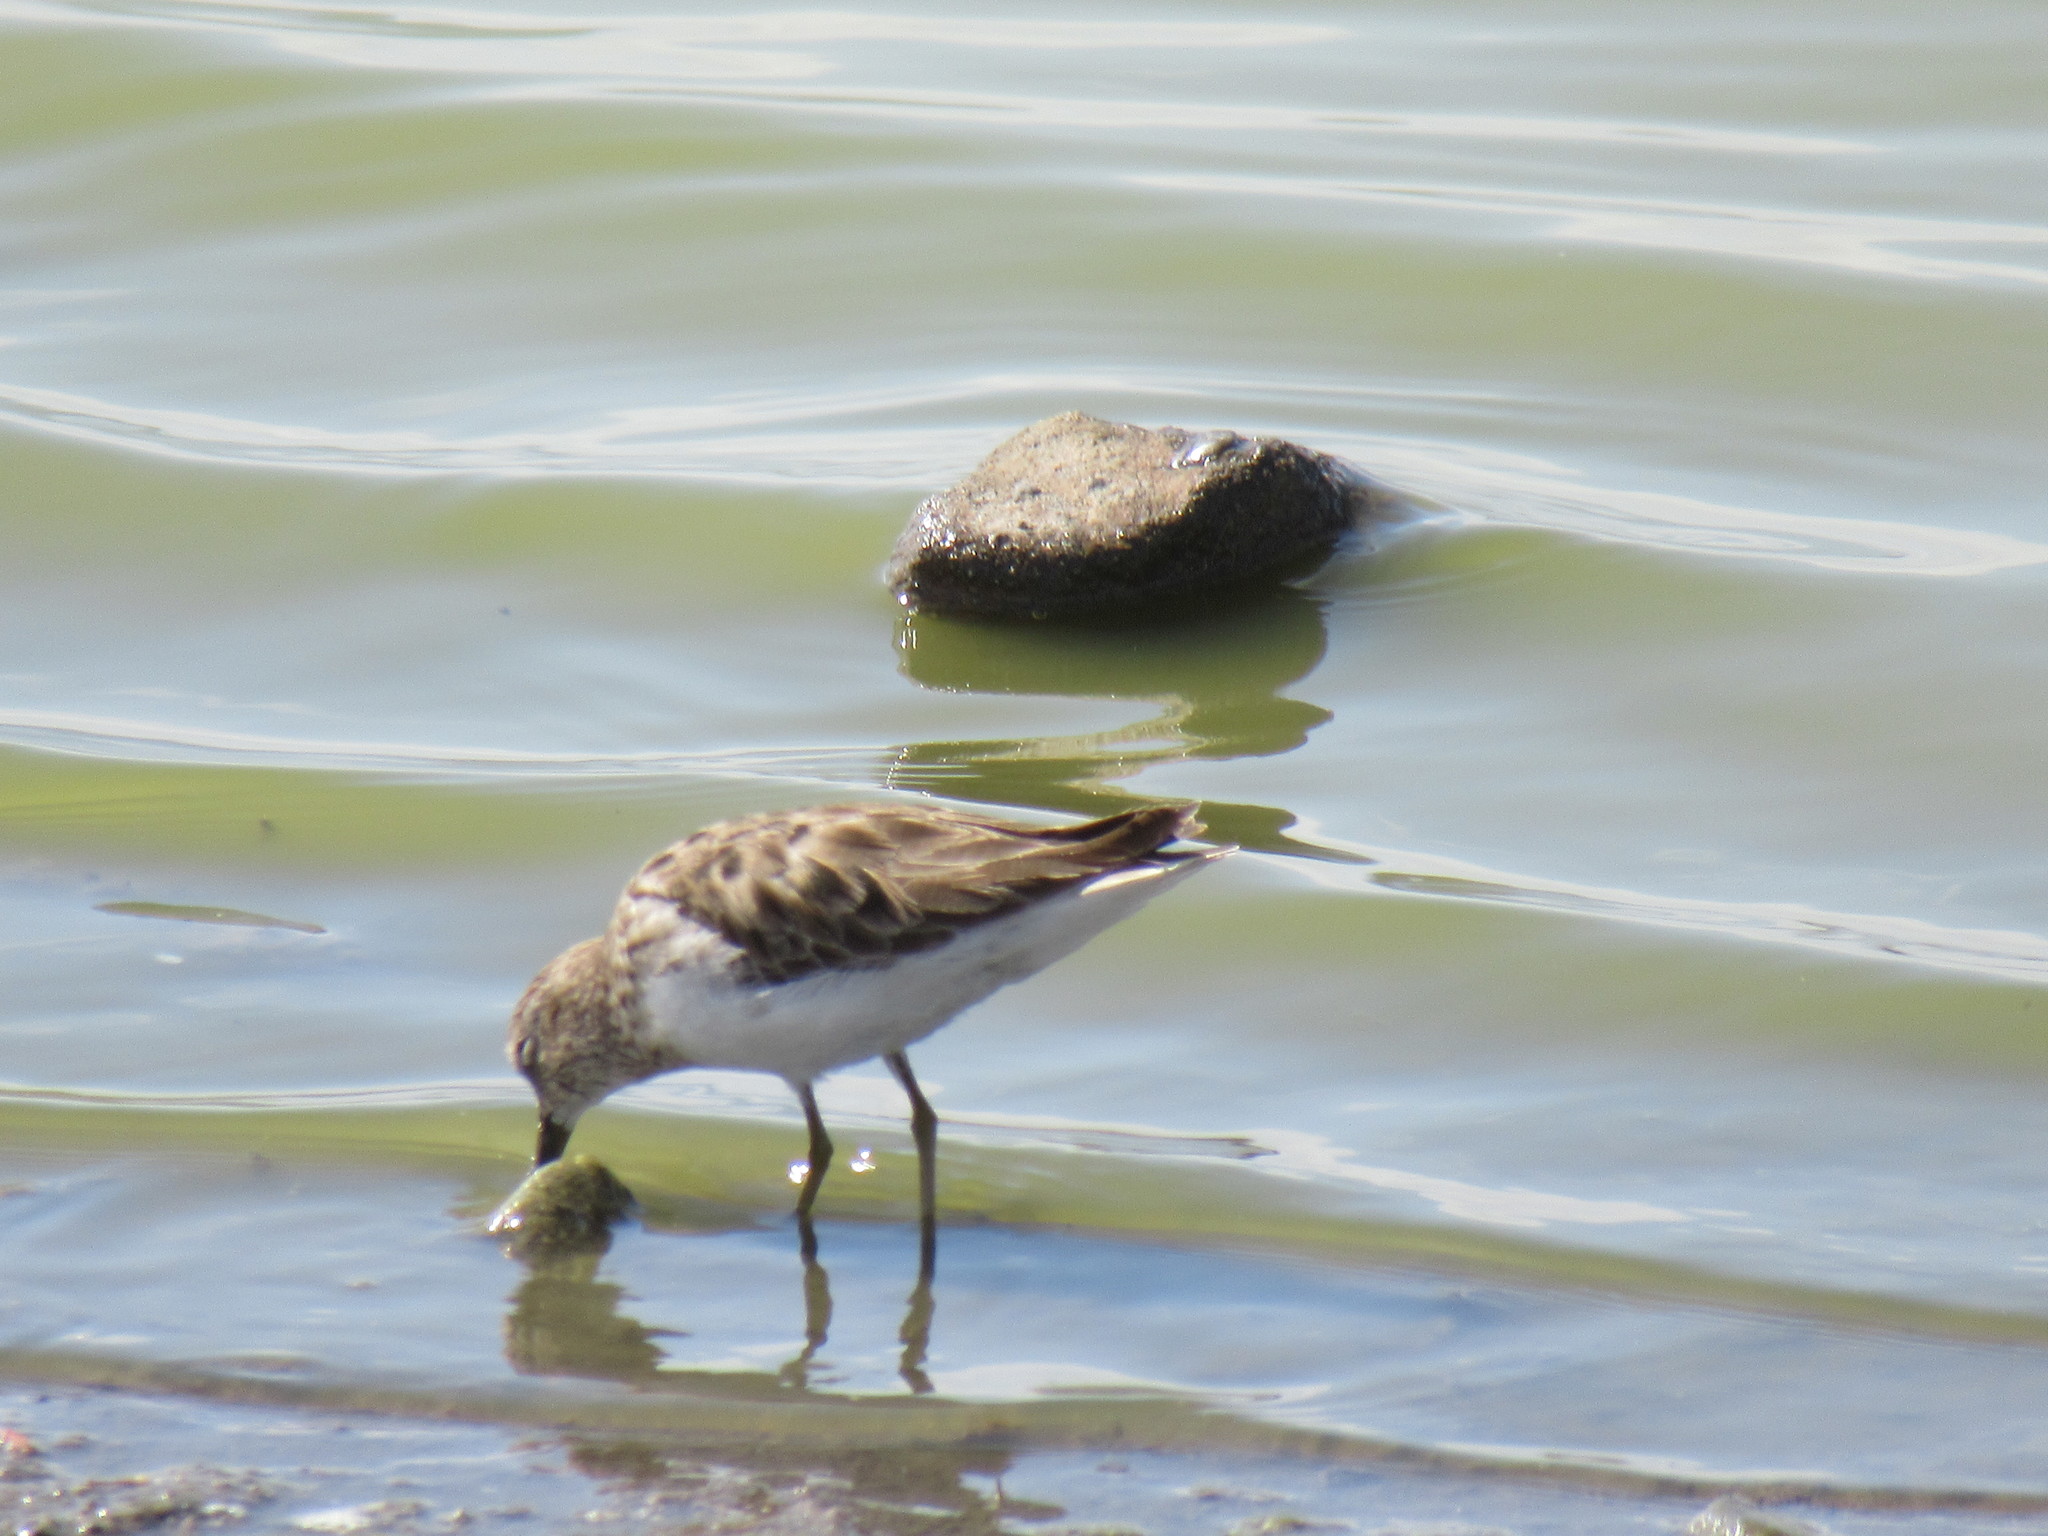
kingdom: Animalia
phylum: Chordata
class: Aves
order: Charadriiformes
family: Scolopacidae
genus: Calidris
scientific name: Calidris minutilla
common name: Least sandpiper
